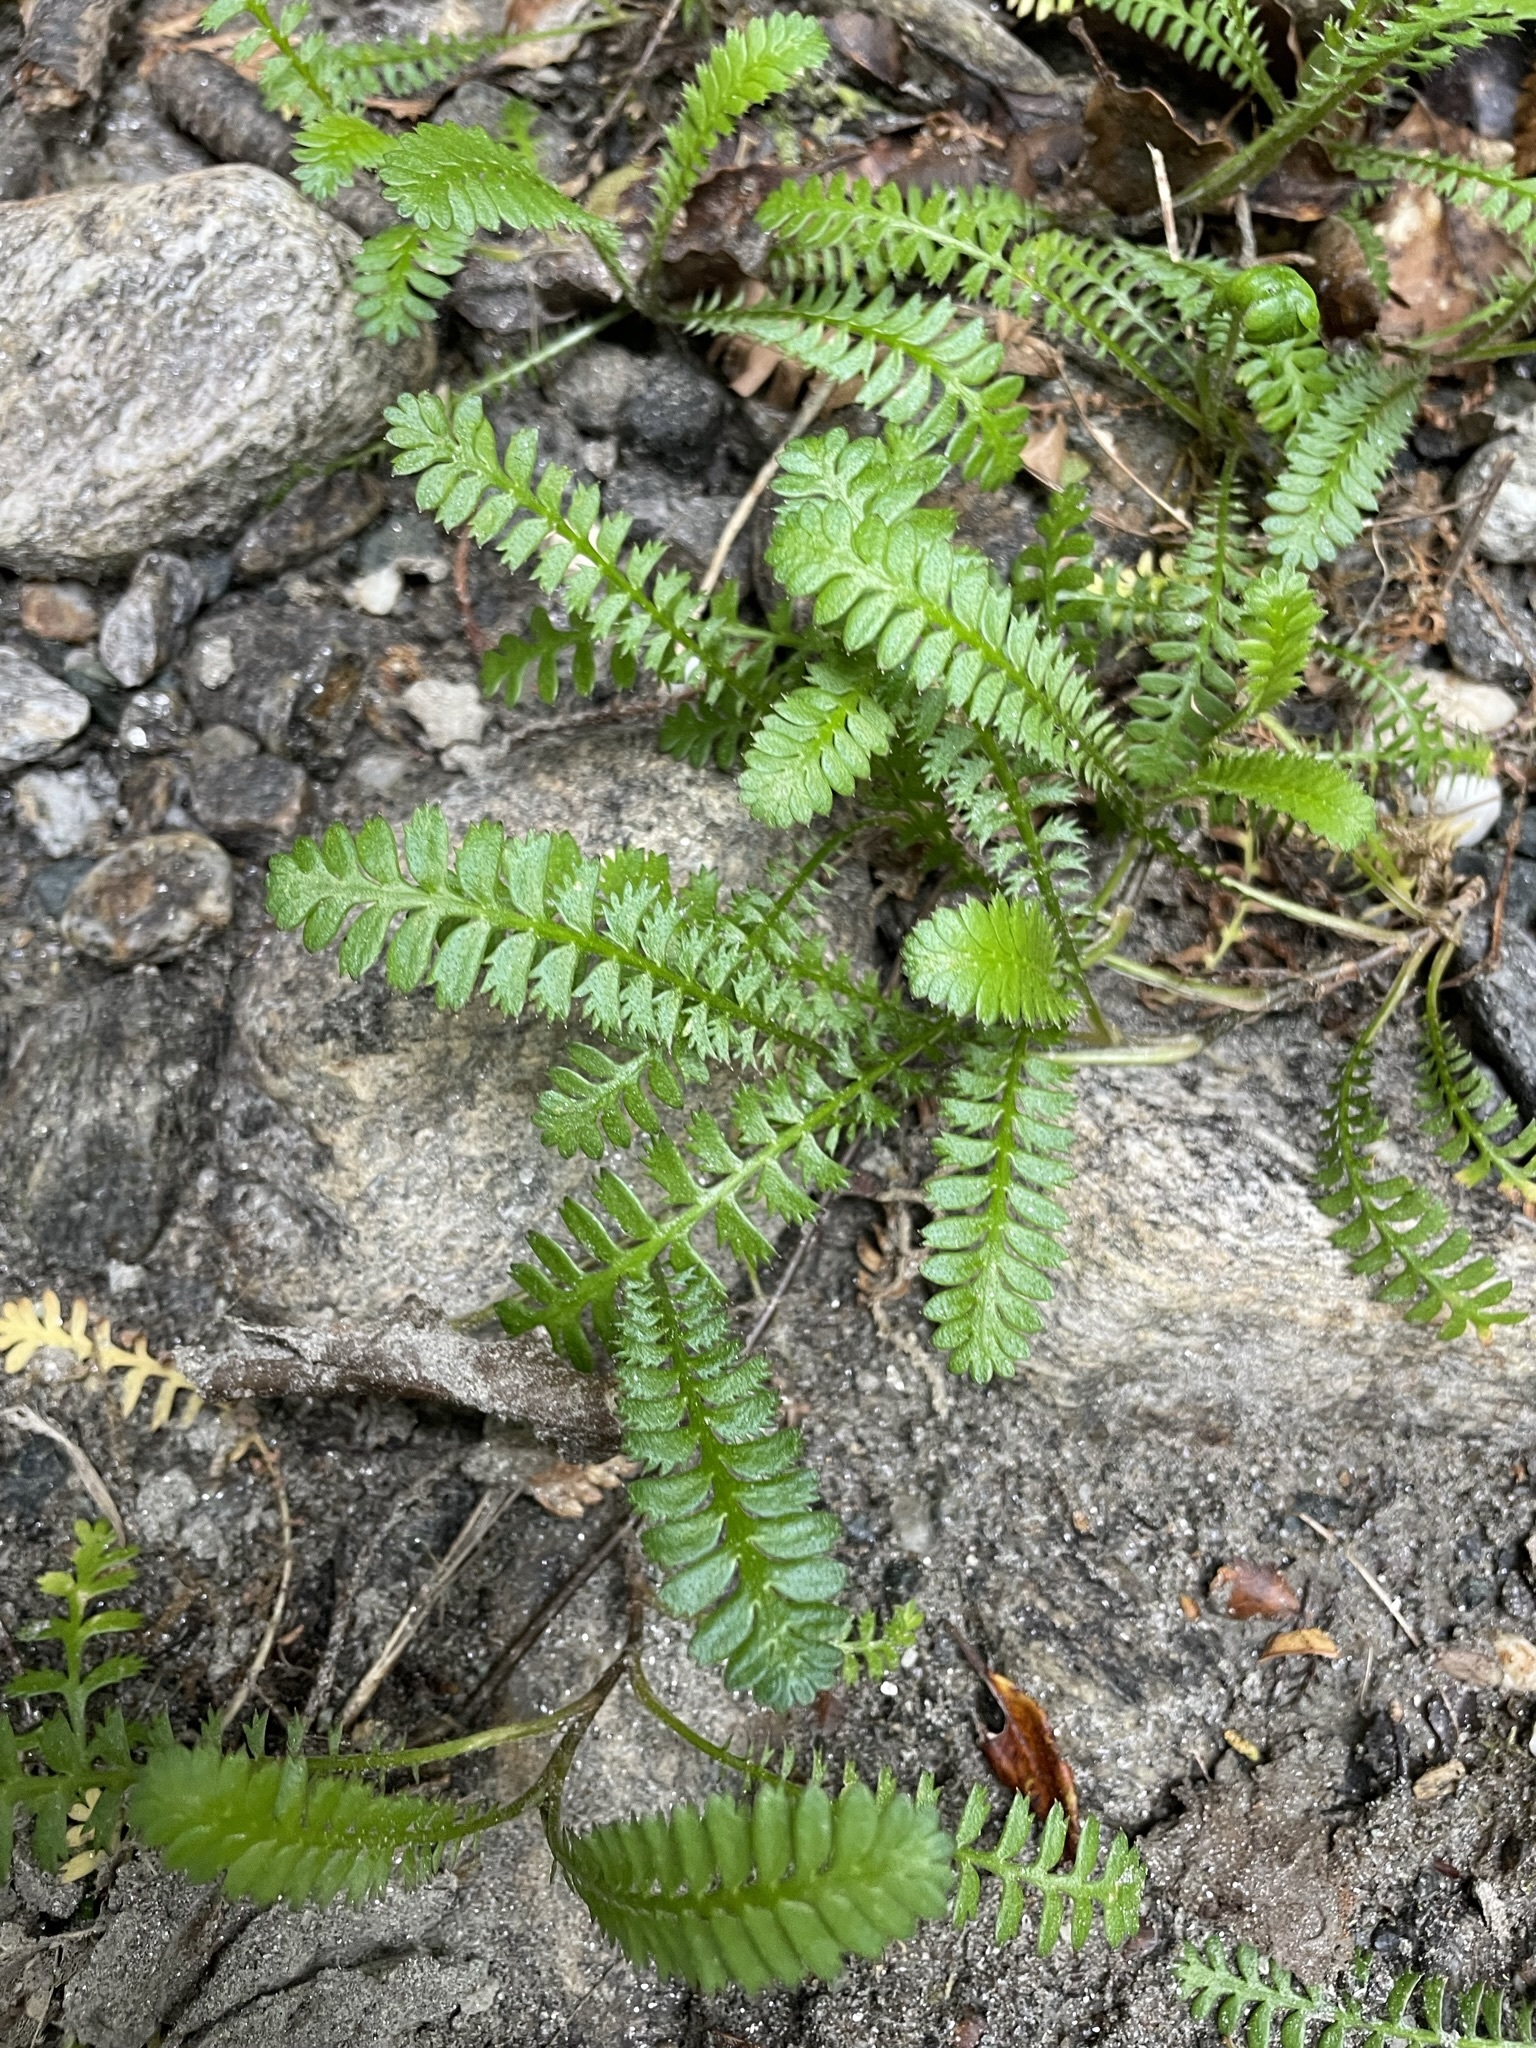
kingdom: Plantae
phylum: Tracheophyta
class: Magnoliopsida
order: Asterales
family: Asteraceae
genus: Leptinella
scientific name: Leptinella squalida
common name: New zealand brass-buttons
